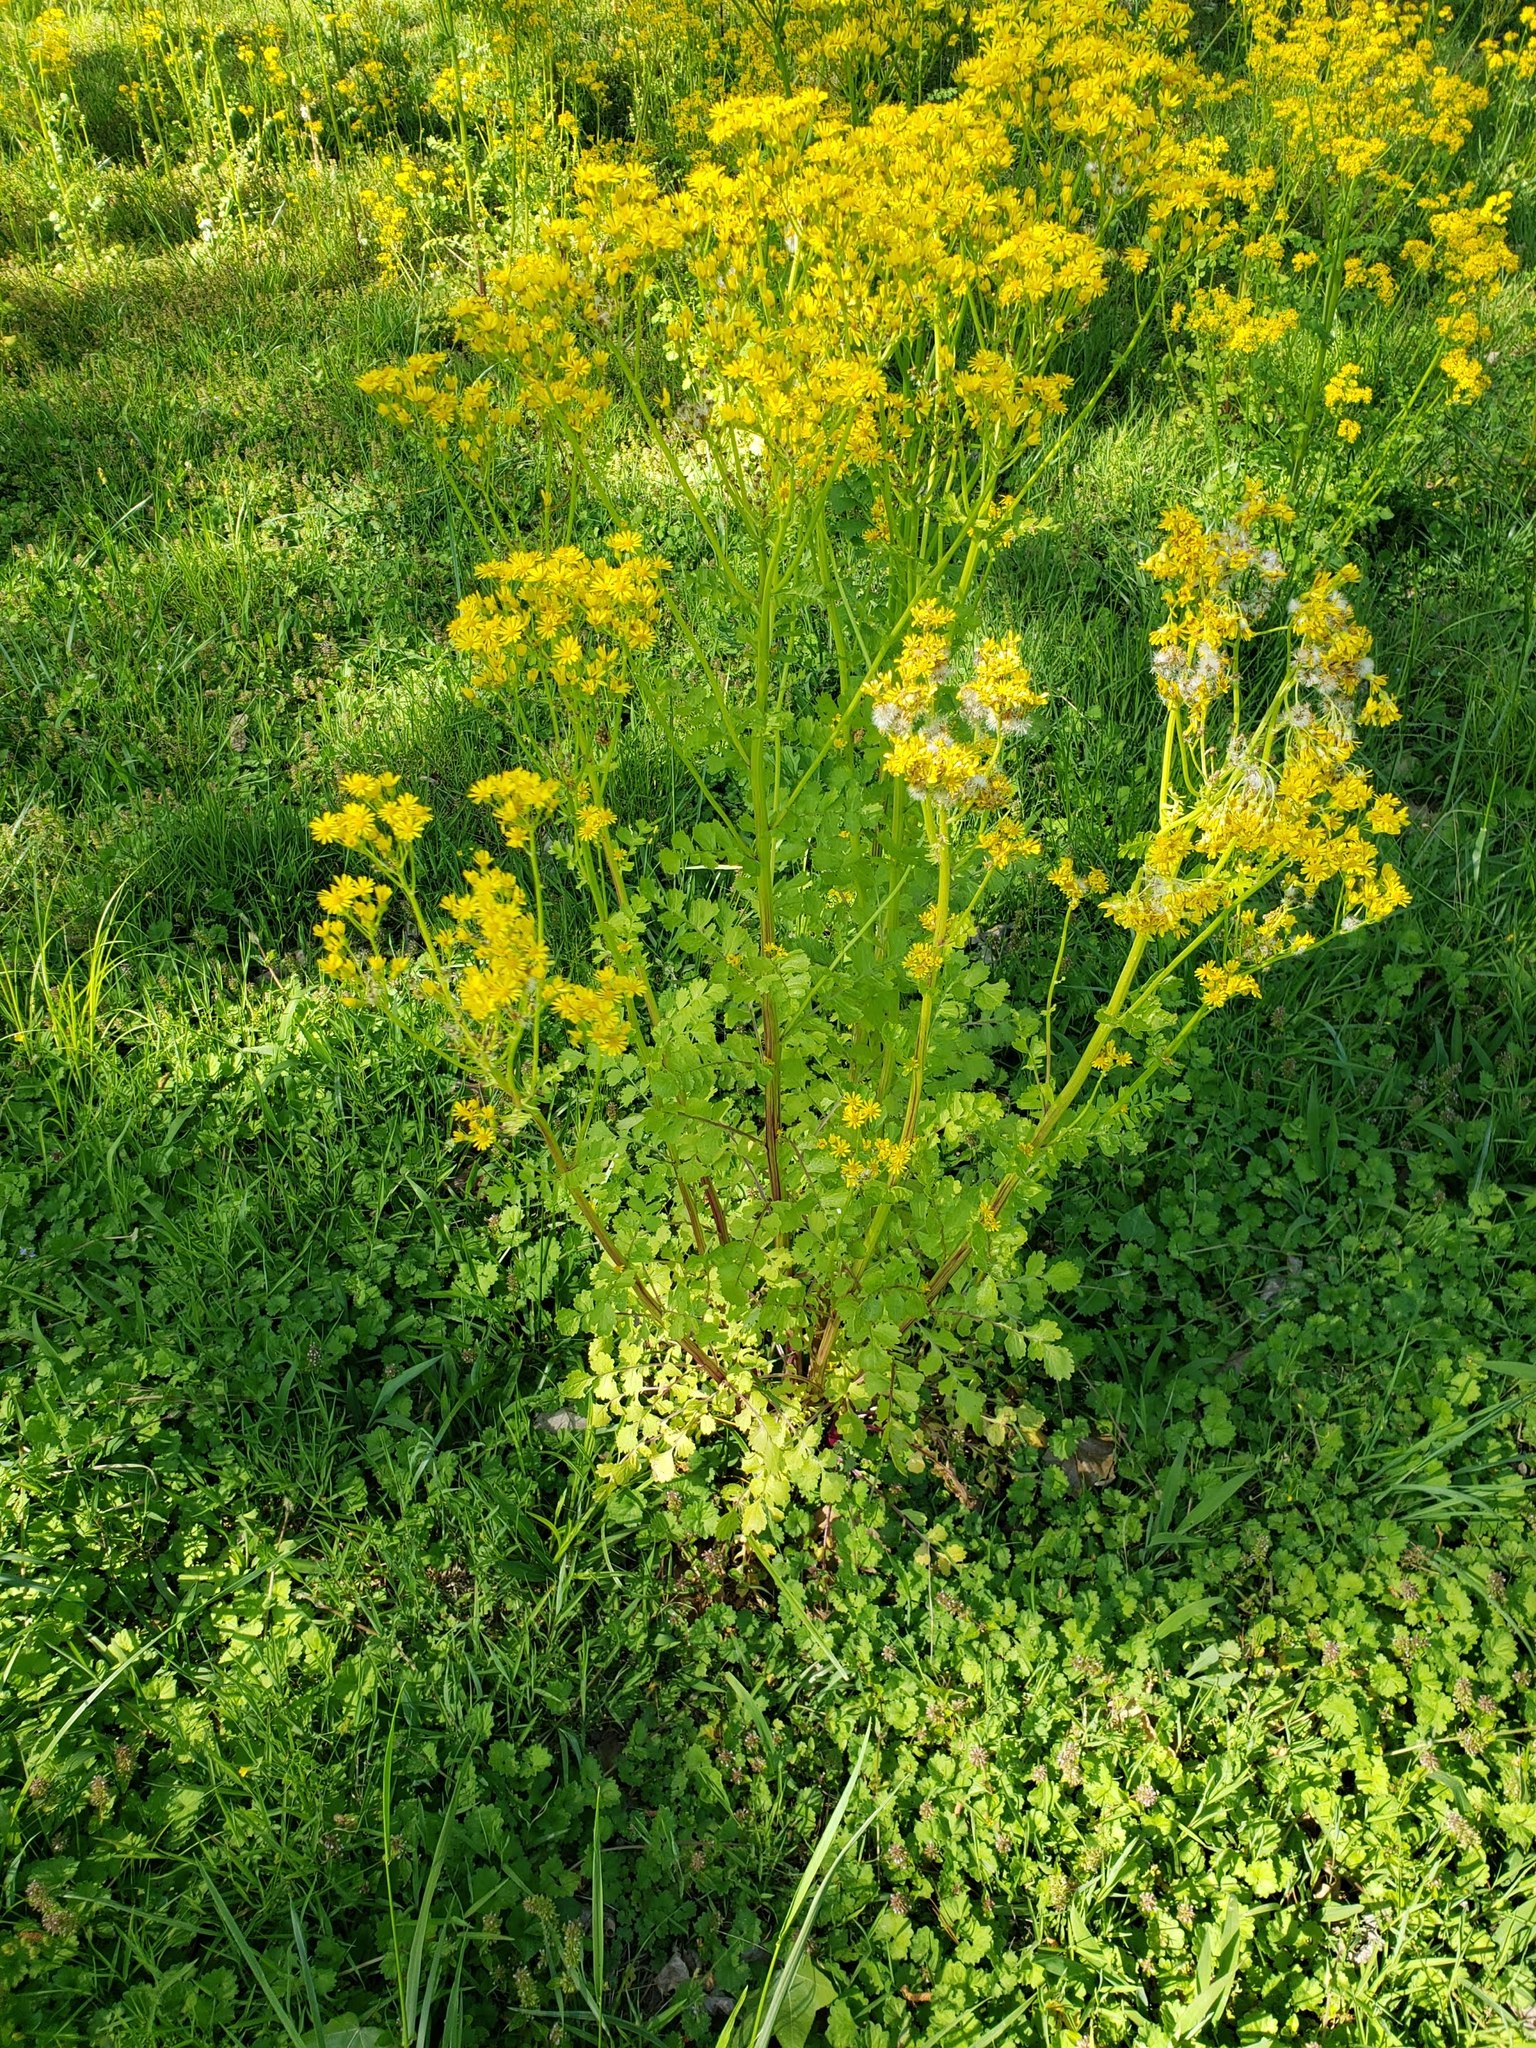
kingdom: Plantae
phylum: Tracheophyta
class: Magnoliopsida
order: Asterales
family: Asteraceae
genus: Packera
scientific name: Packera glabella
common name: Butterweed
